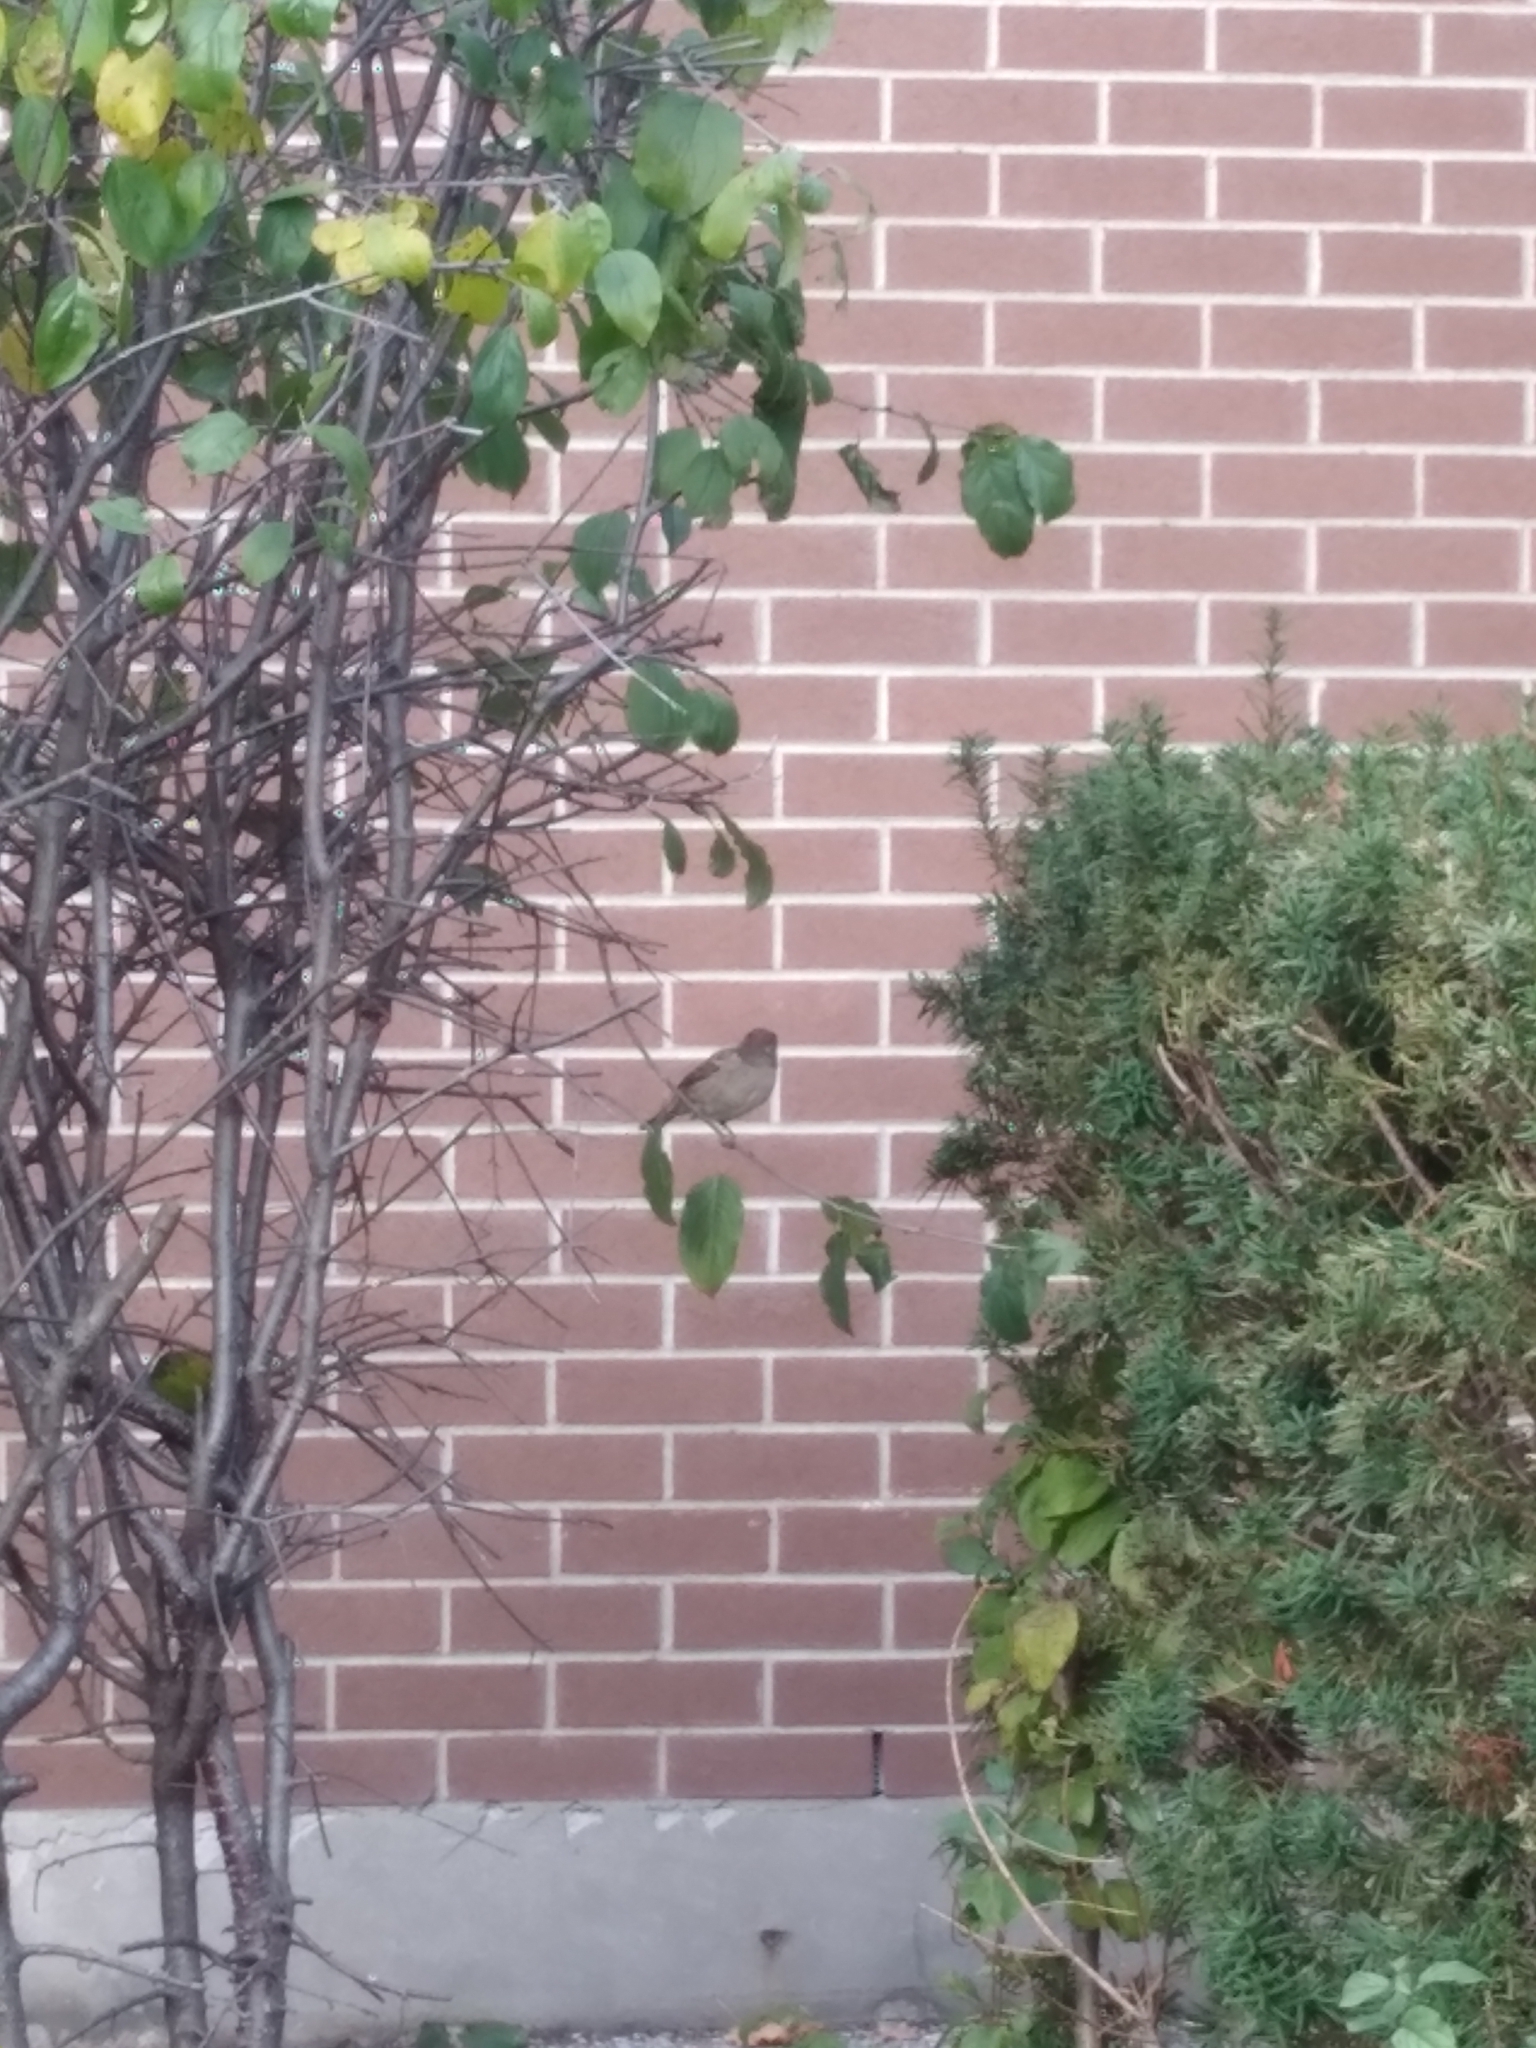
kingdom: Animalia
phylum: Chordata
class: Aves
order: Passeriformes
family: Passeridae
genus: Passer
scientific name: Passer domesticus
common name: House sparrow
